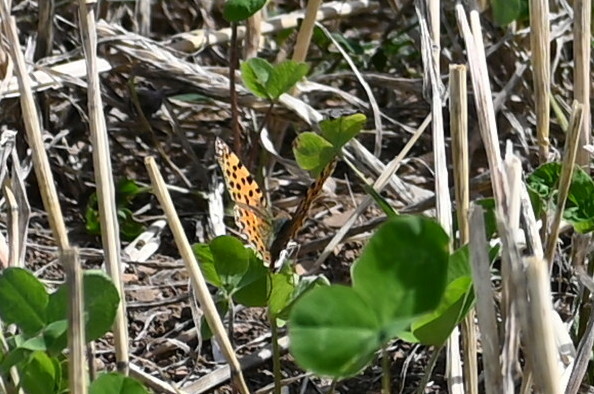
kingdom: Animalia
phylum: Arthropoda
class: Insecta
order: Lepidoptera
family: Nymphalidae
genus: Issoria
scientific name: Issoria lathonia
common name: Queen of spain fritillary
